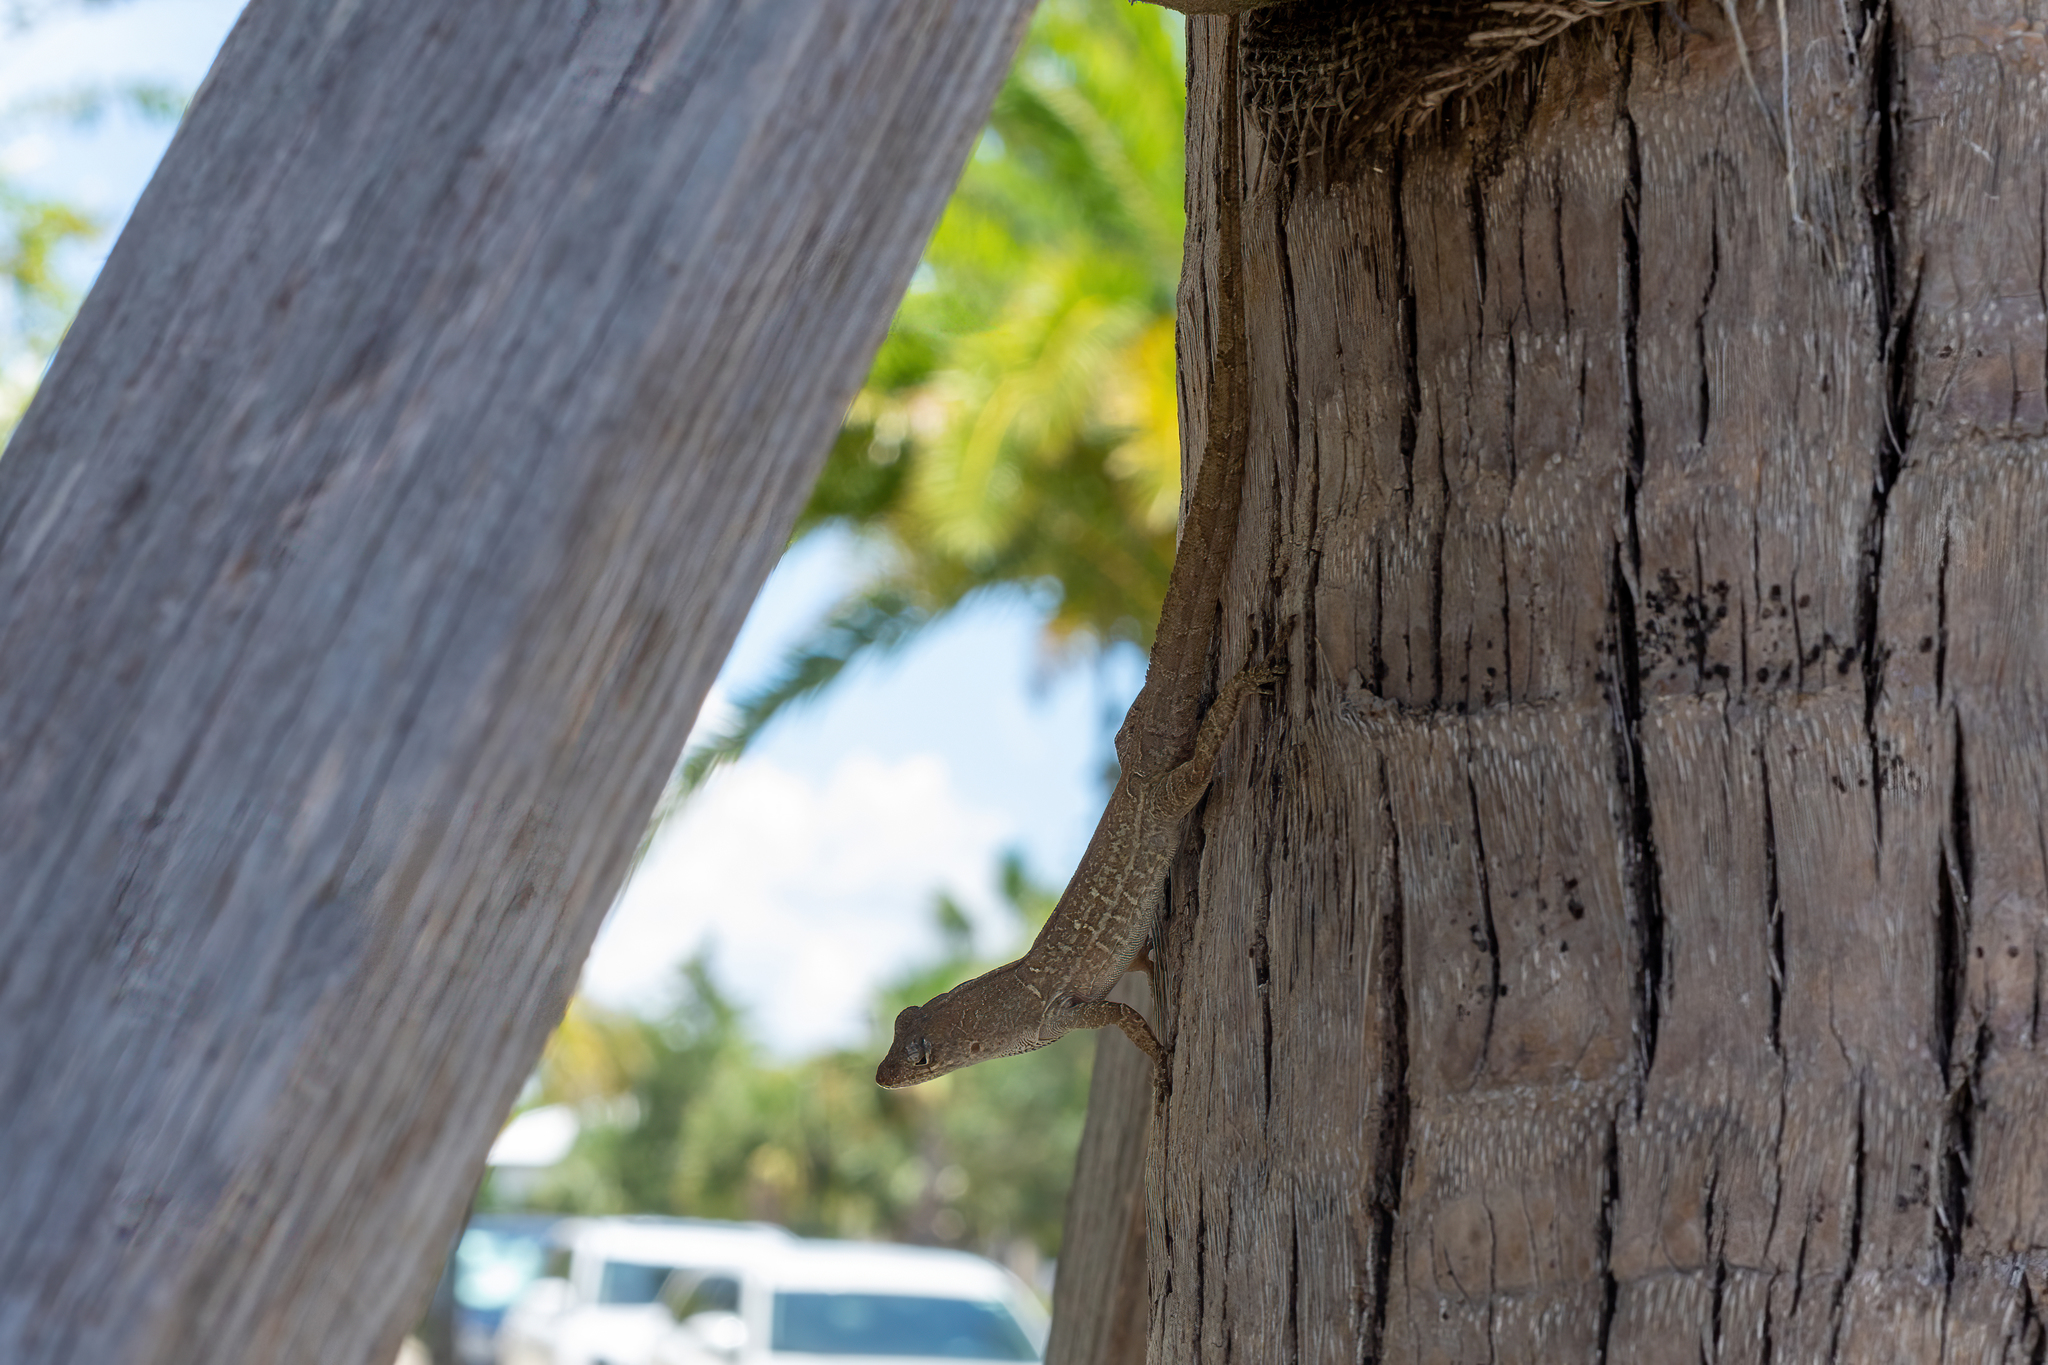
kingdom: Animalia
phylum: Chordata
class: Squamata
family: Dactyloidae
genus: Anolis
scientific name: Anolis sagrei
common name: Brown anole
